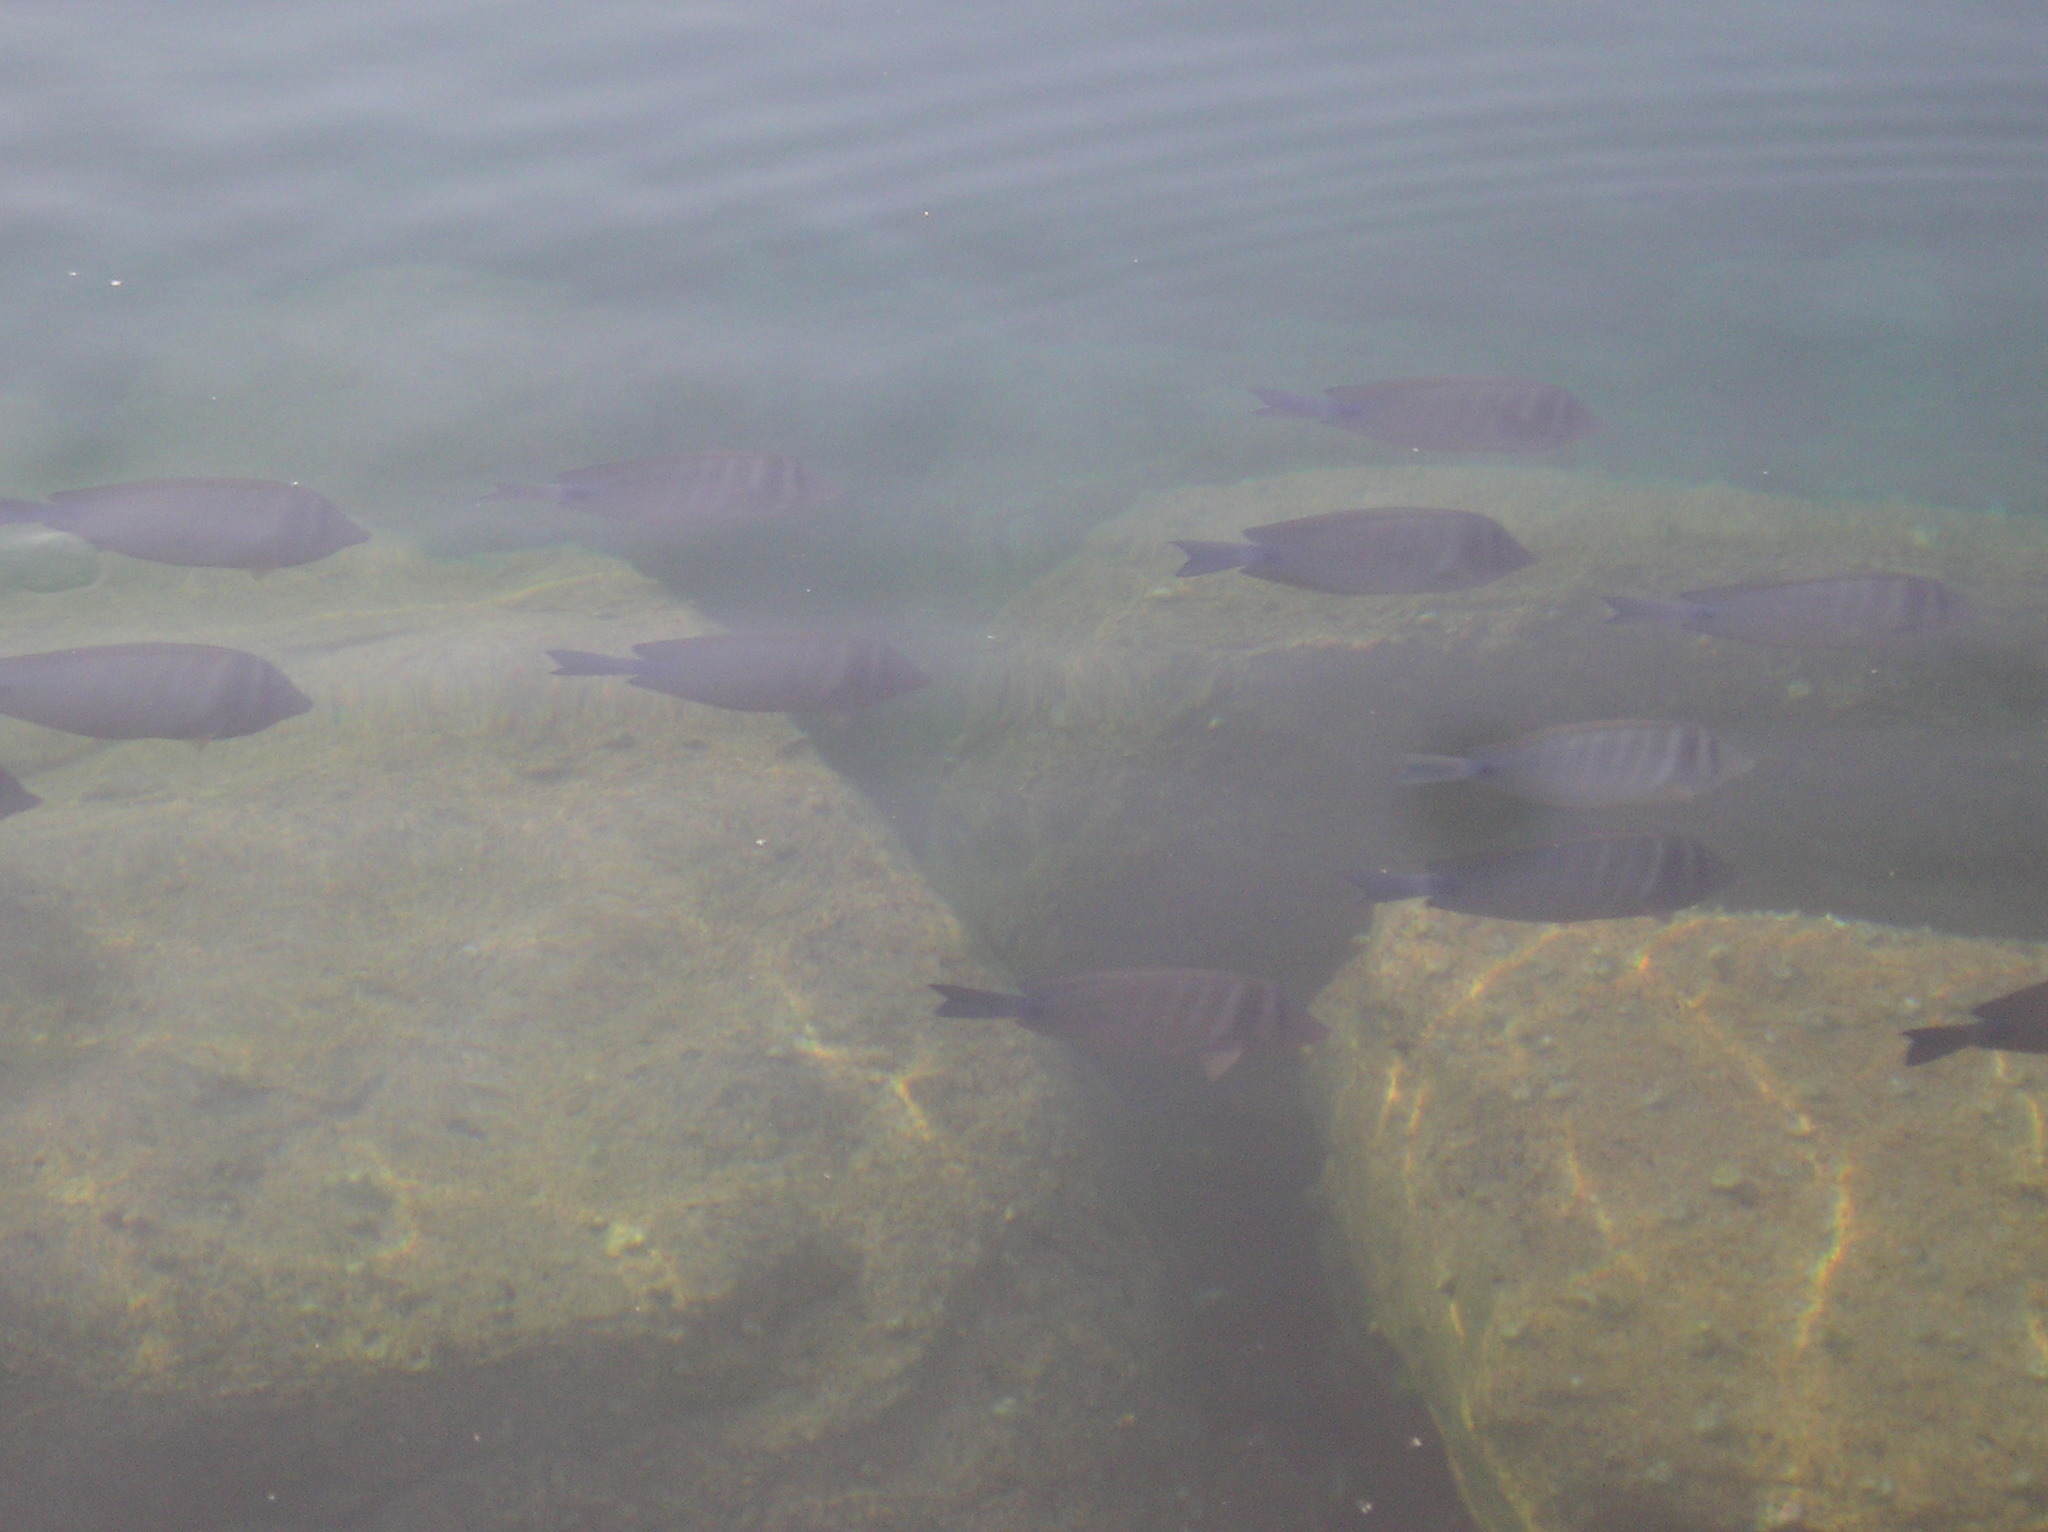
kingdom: Animalia
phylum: Chordata
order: Perciformes
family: Acanthuridae
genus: Zebrasoma
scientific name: Zebrasoma desjardinii
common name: Desjardin's sailfin tang
